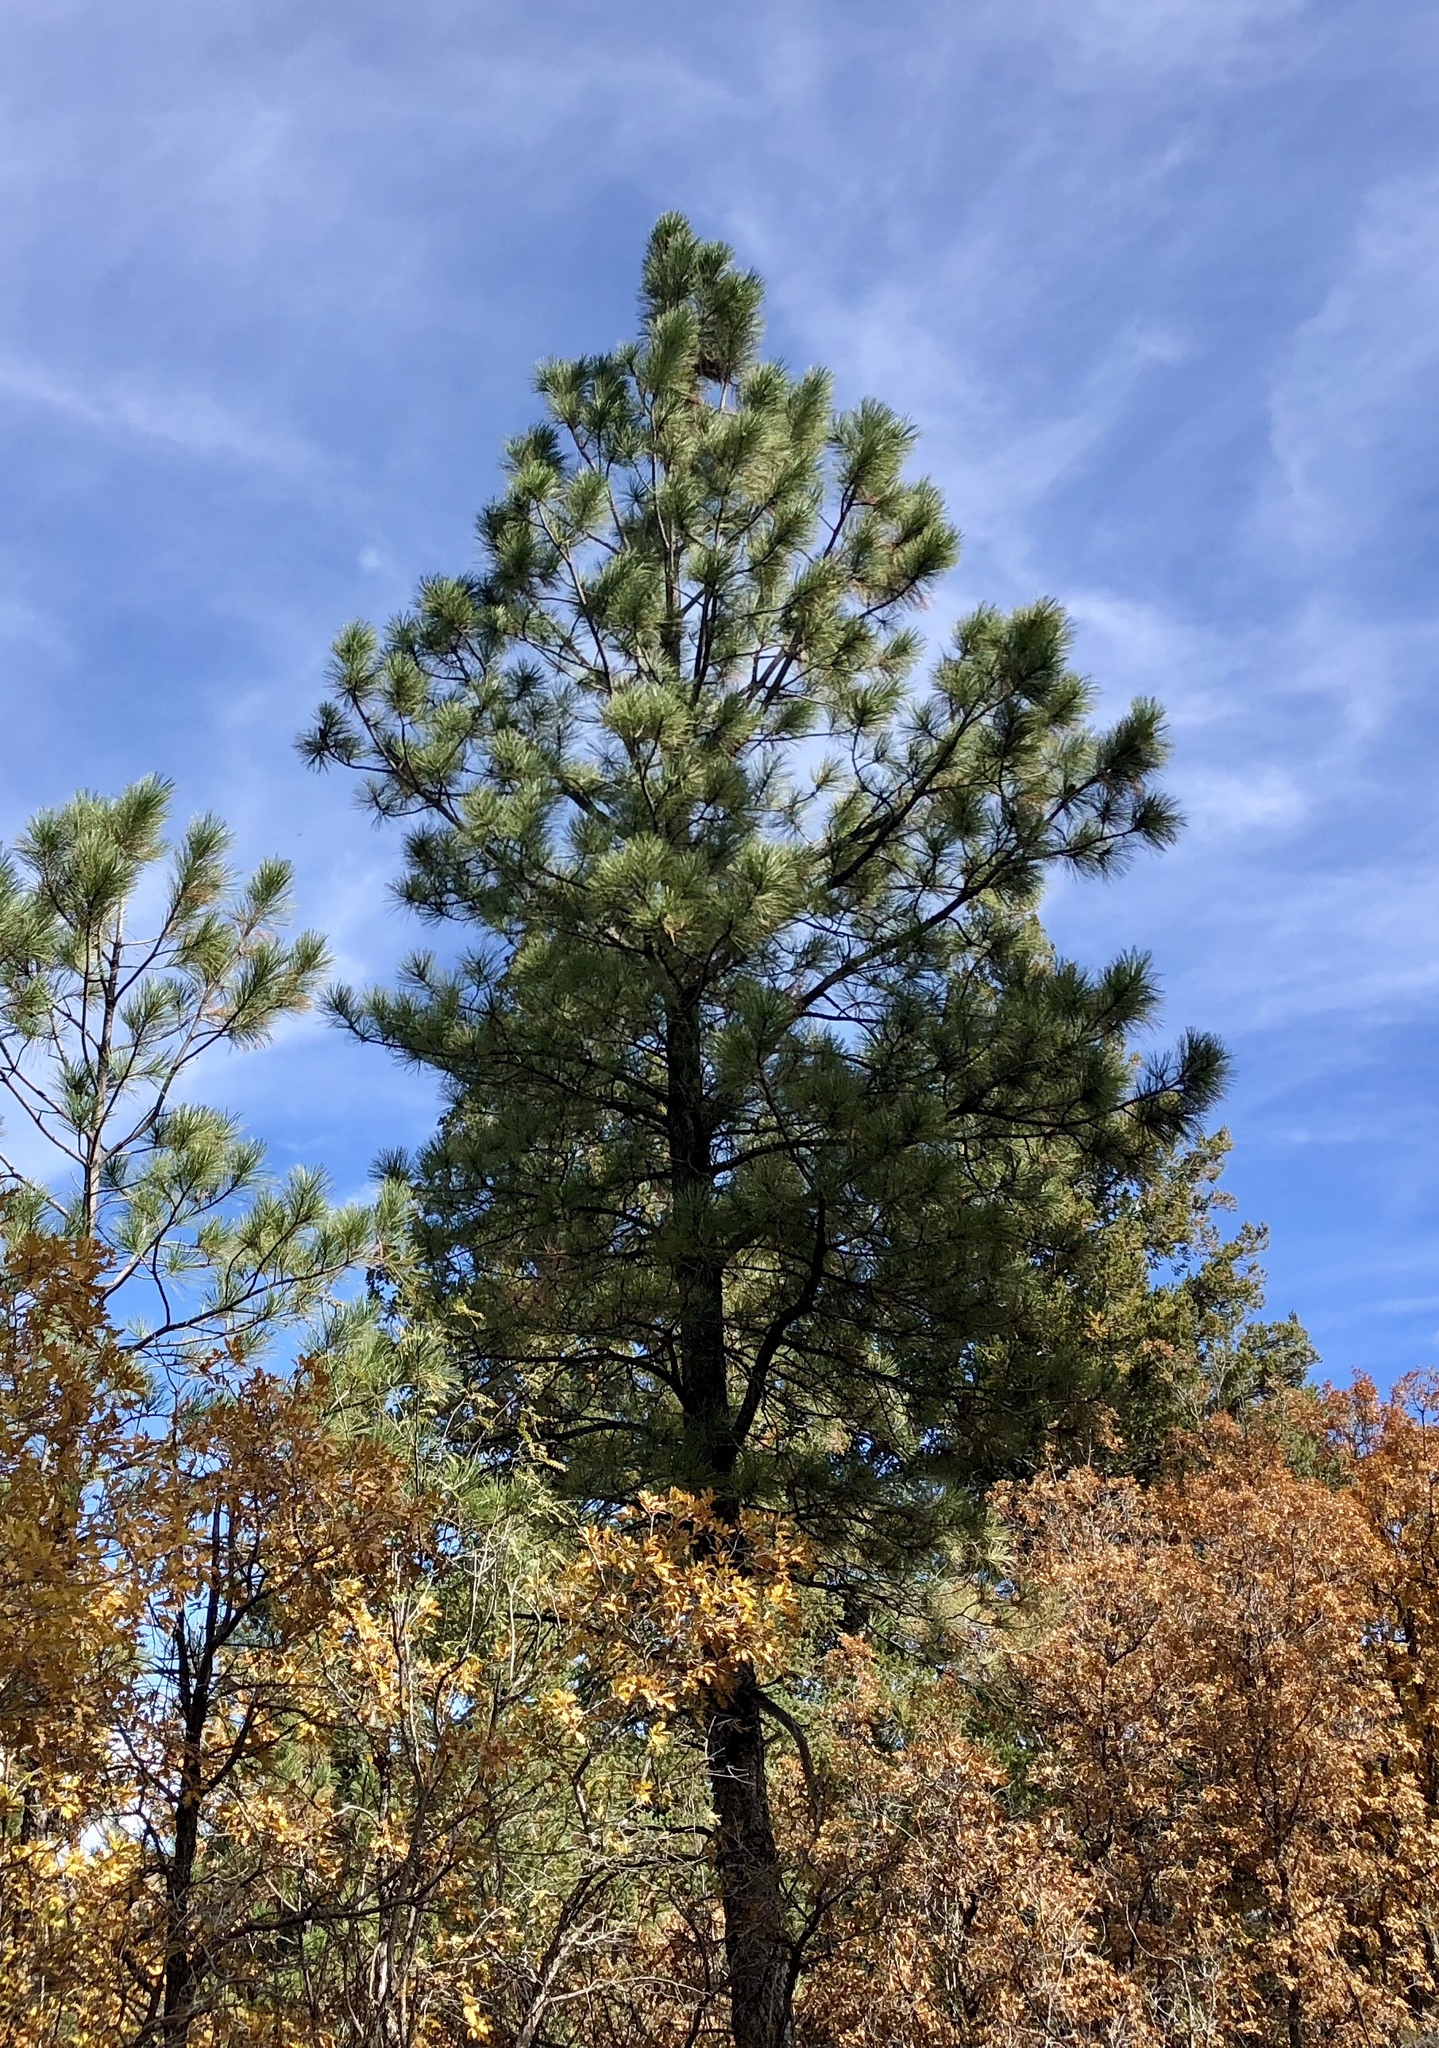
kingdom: Plantae
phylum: Tracheophyta
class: Pinopsida
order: Pinales
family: Pinaceae
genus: Pinus
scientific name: Pinus ponderosa
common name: Western yellow-pine
